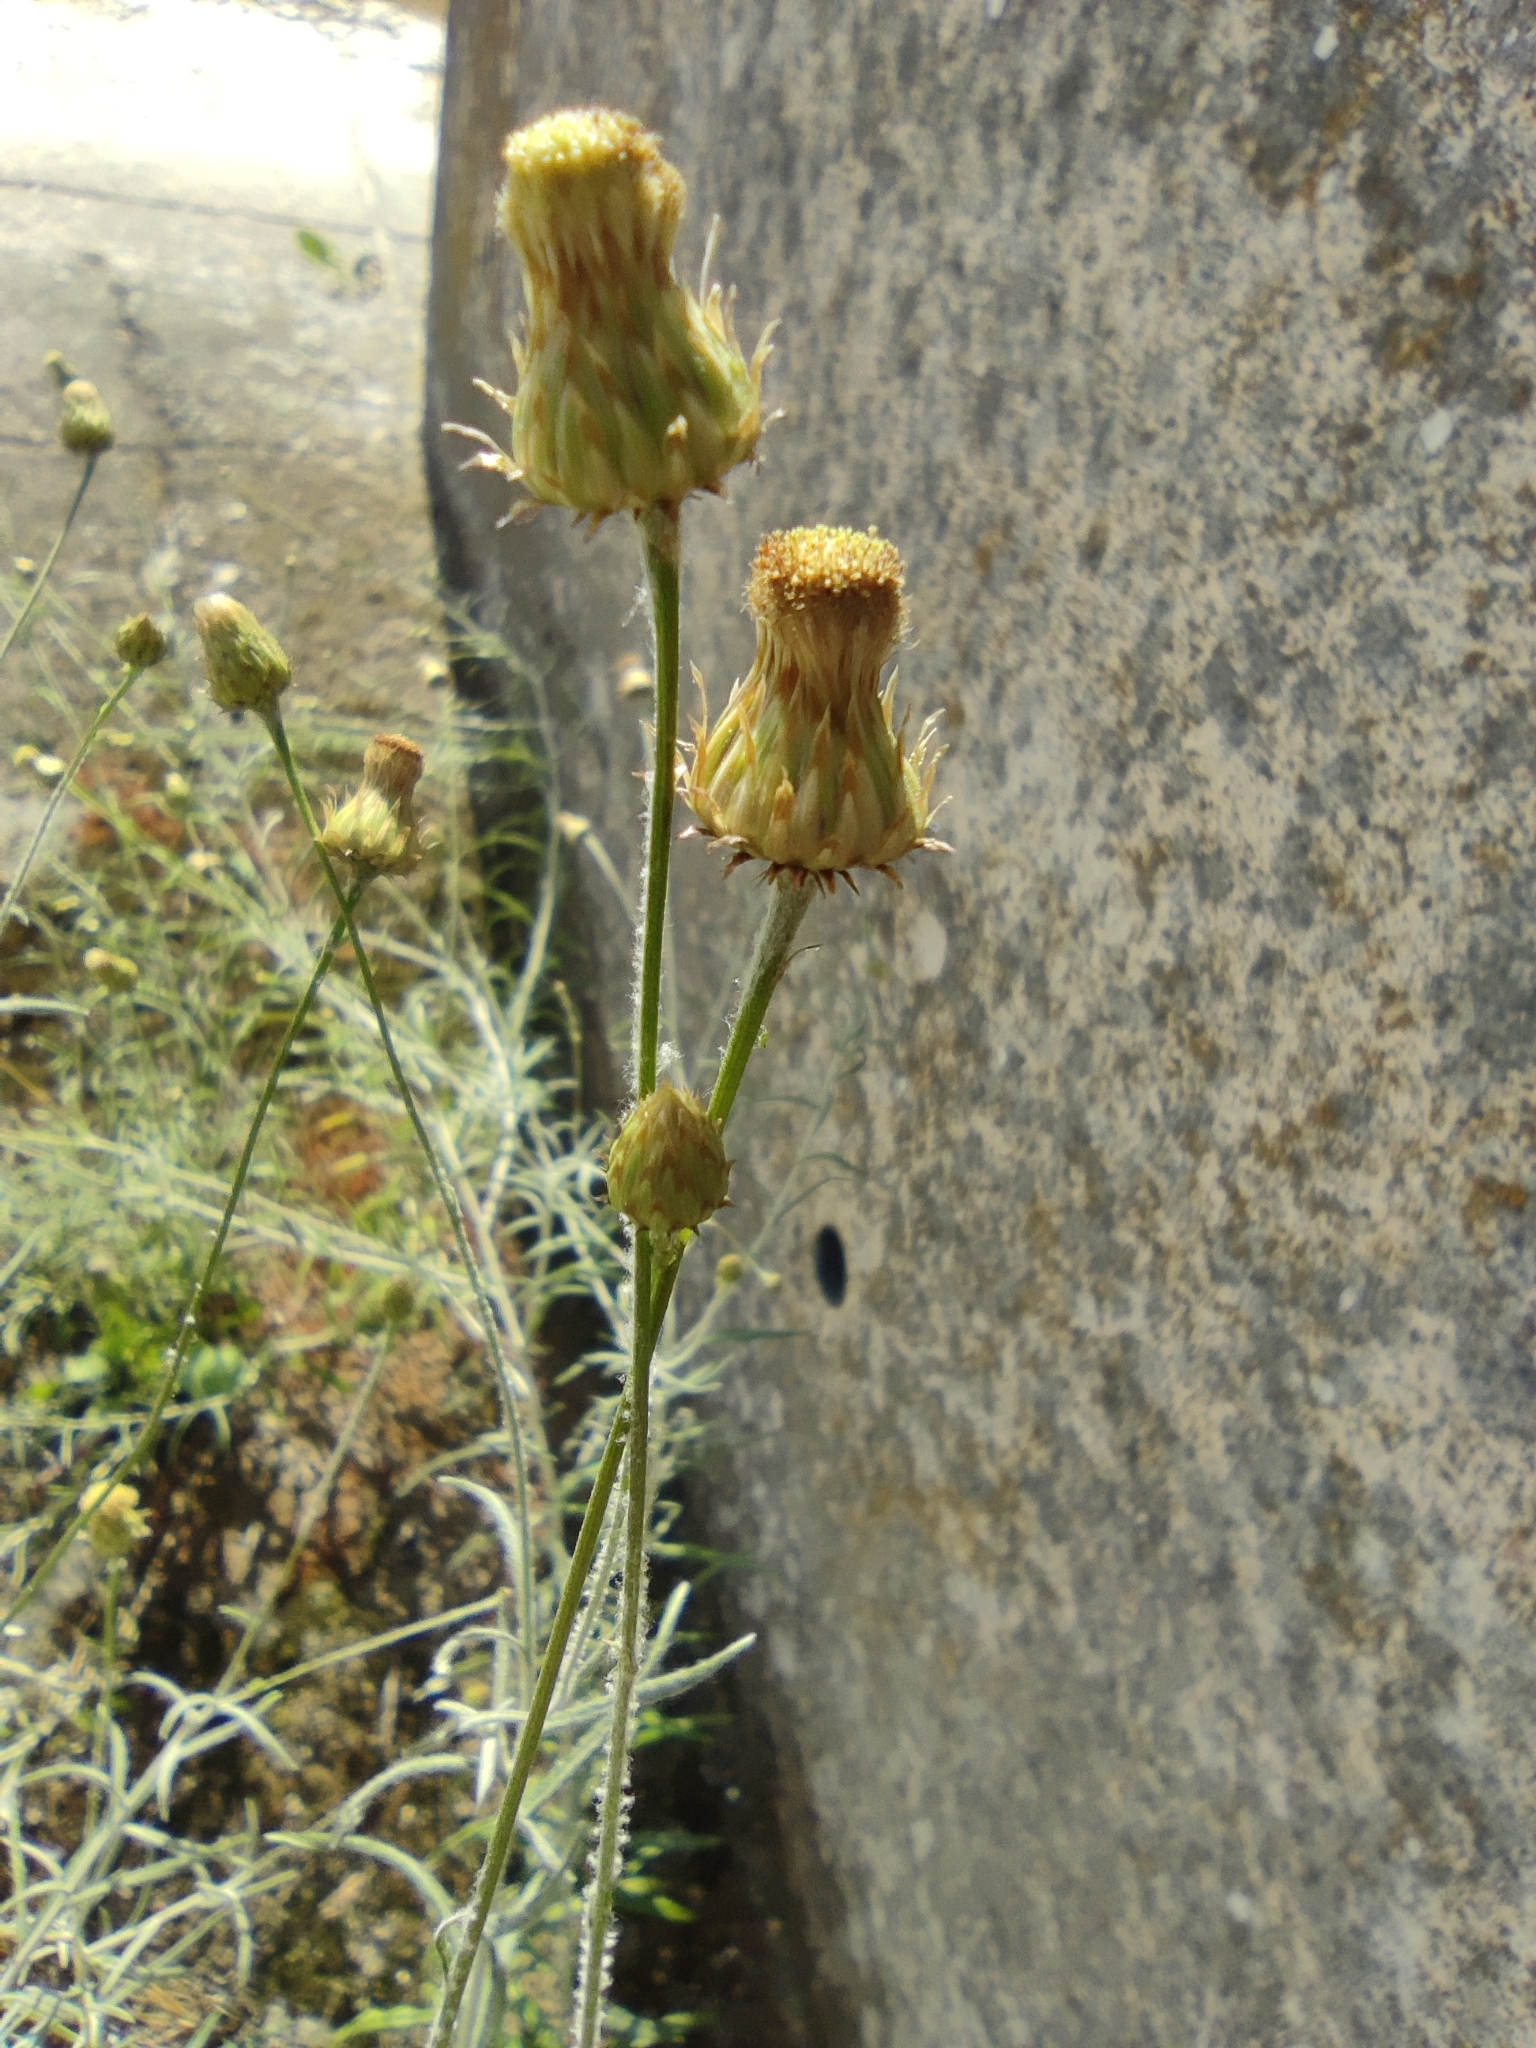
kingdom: Plantae
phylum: Tracheophyta
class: Magnoliopsida
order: Asterales
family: Asteraceae
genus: Phagnalon
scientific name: Phagnalon saxatile
